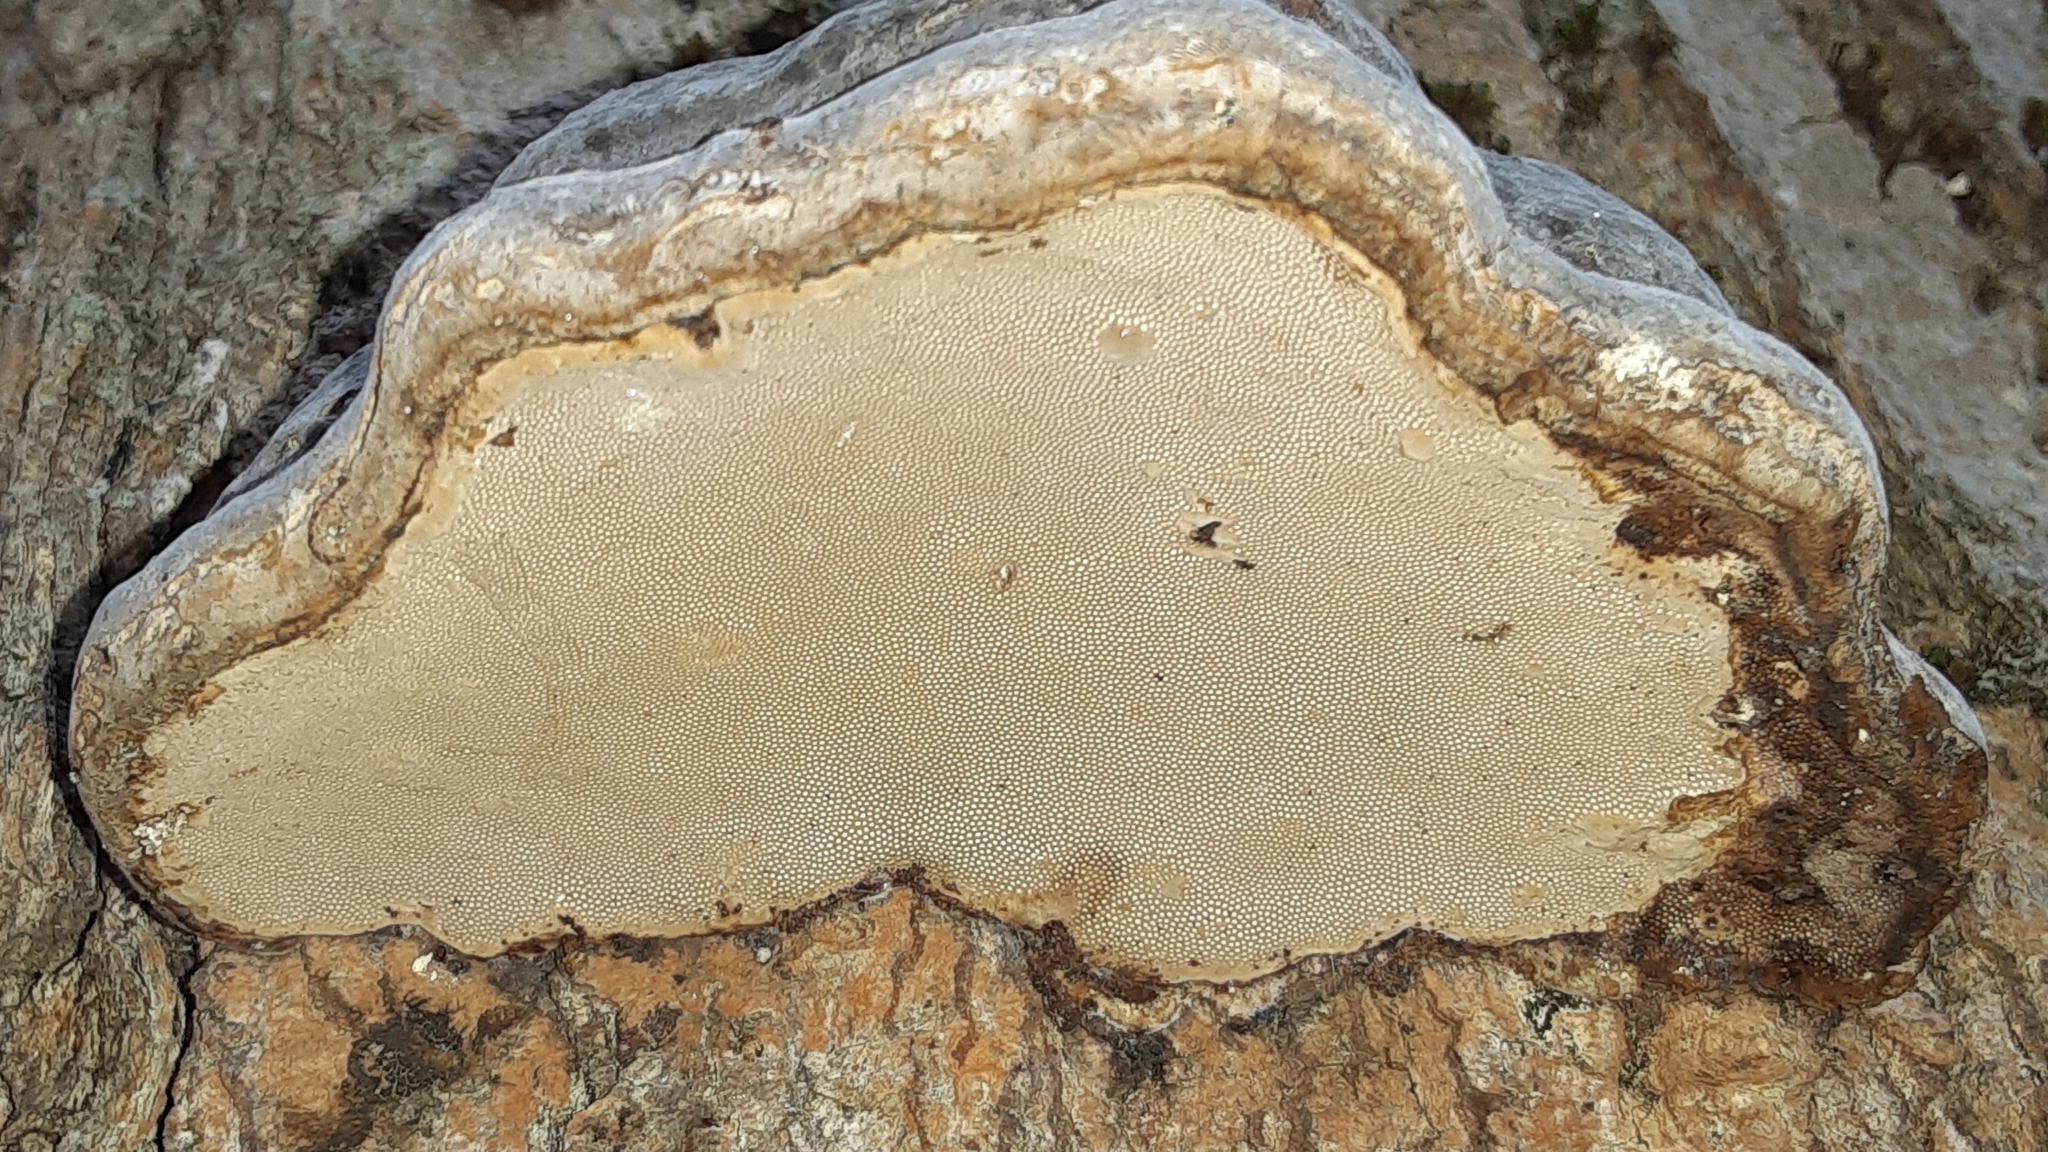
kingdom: Fungi
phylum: Basidiomycota
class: Agaricomycetes
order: Polyporales
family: Polyporaceae
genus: Fomes
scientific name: Fomes fomentarius
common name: Hoof fungus
